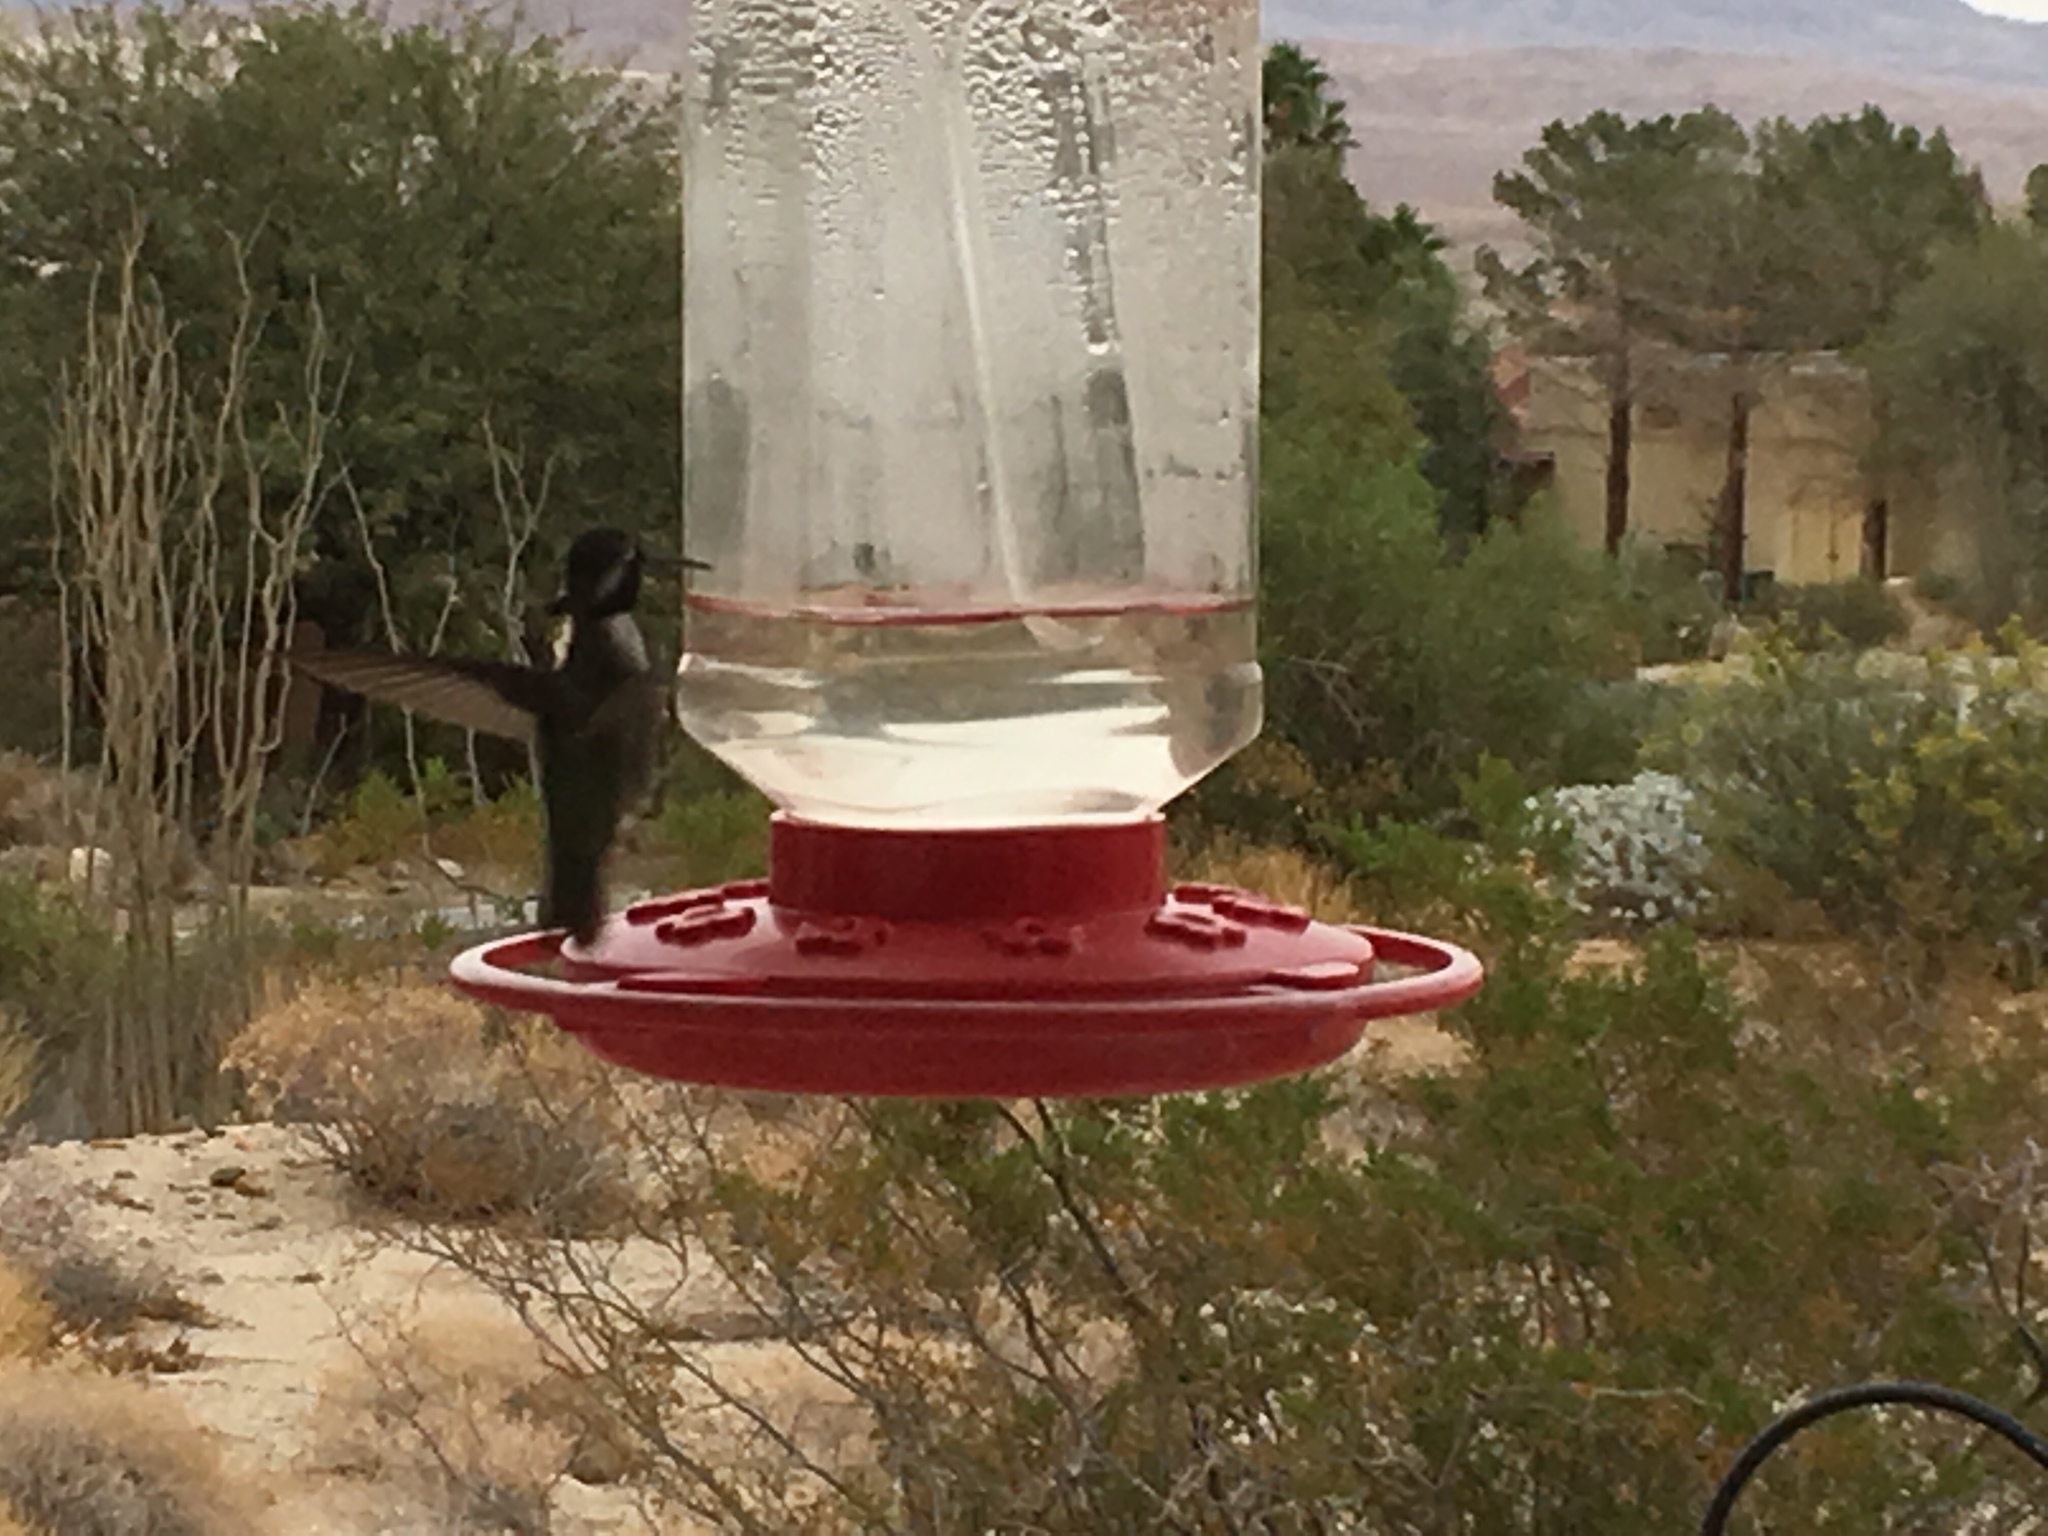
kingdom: Animalia
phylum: Chordata
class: Aves
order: Apodiformes
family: Trochilidae
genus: Calypte
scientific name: Calypte costae
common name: Costa's hummingbird
